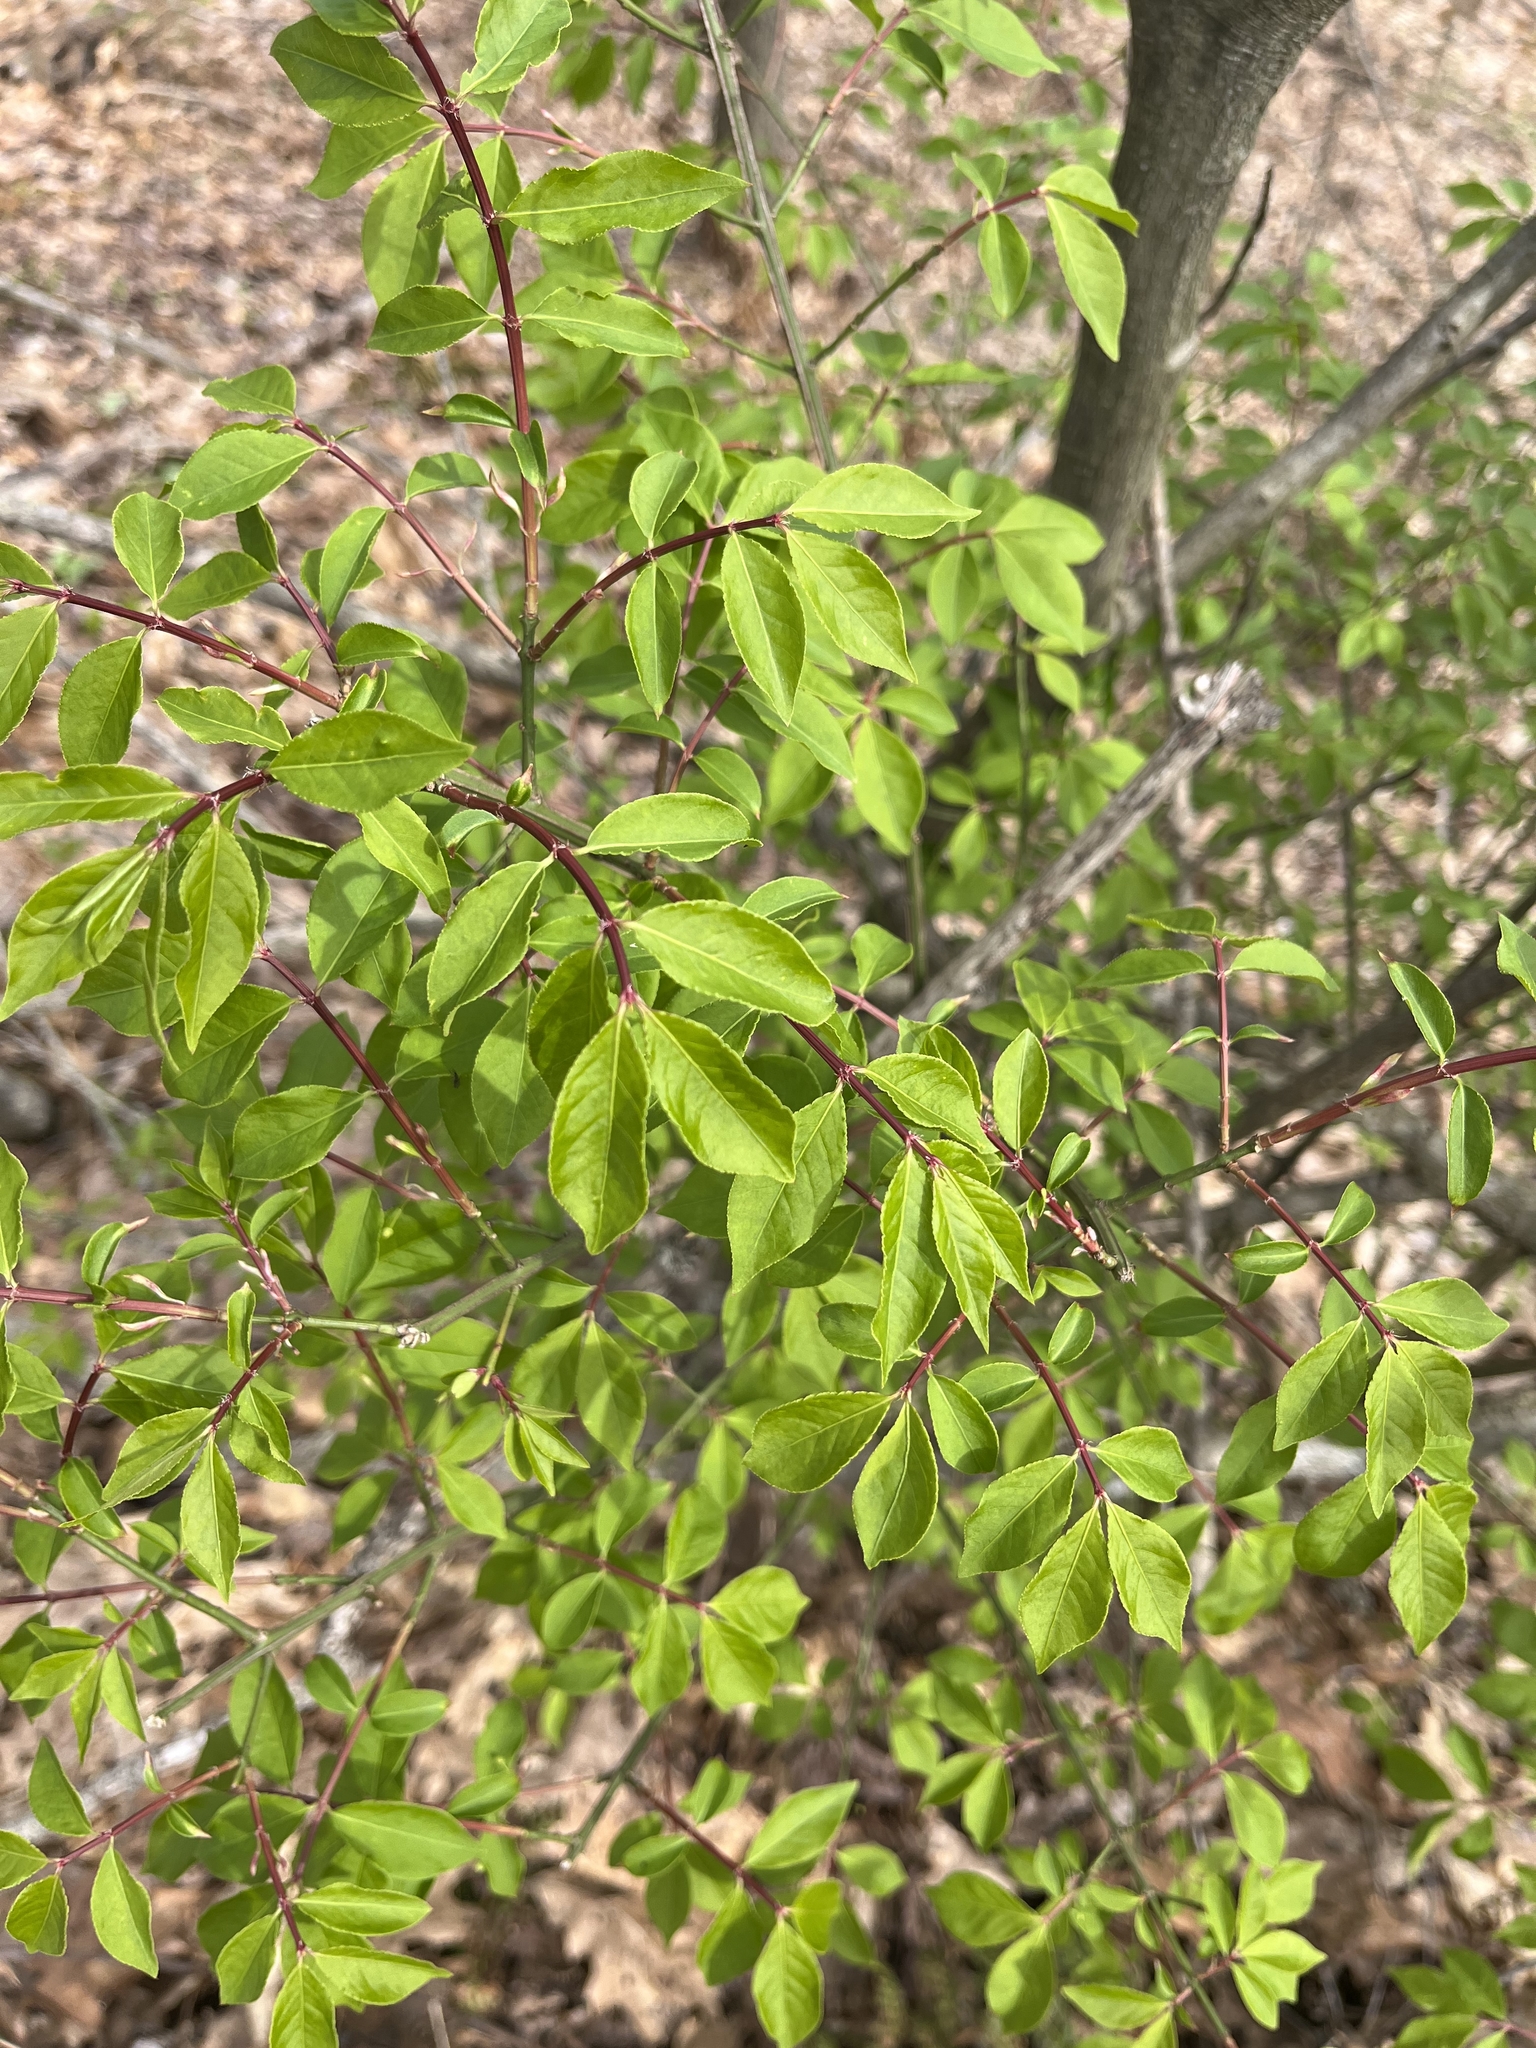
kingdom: Plantae
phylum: Tracheophyta
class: Magnoliopsida
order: Celastrales
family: Celastraceae
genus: Euonymus
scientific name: Euonymus alatus
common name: Winged euonymus
